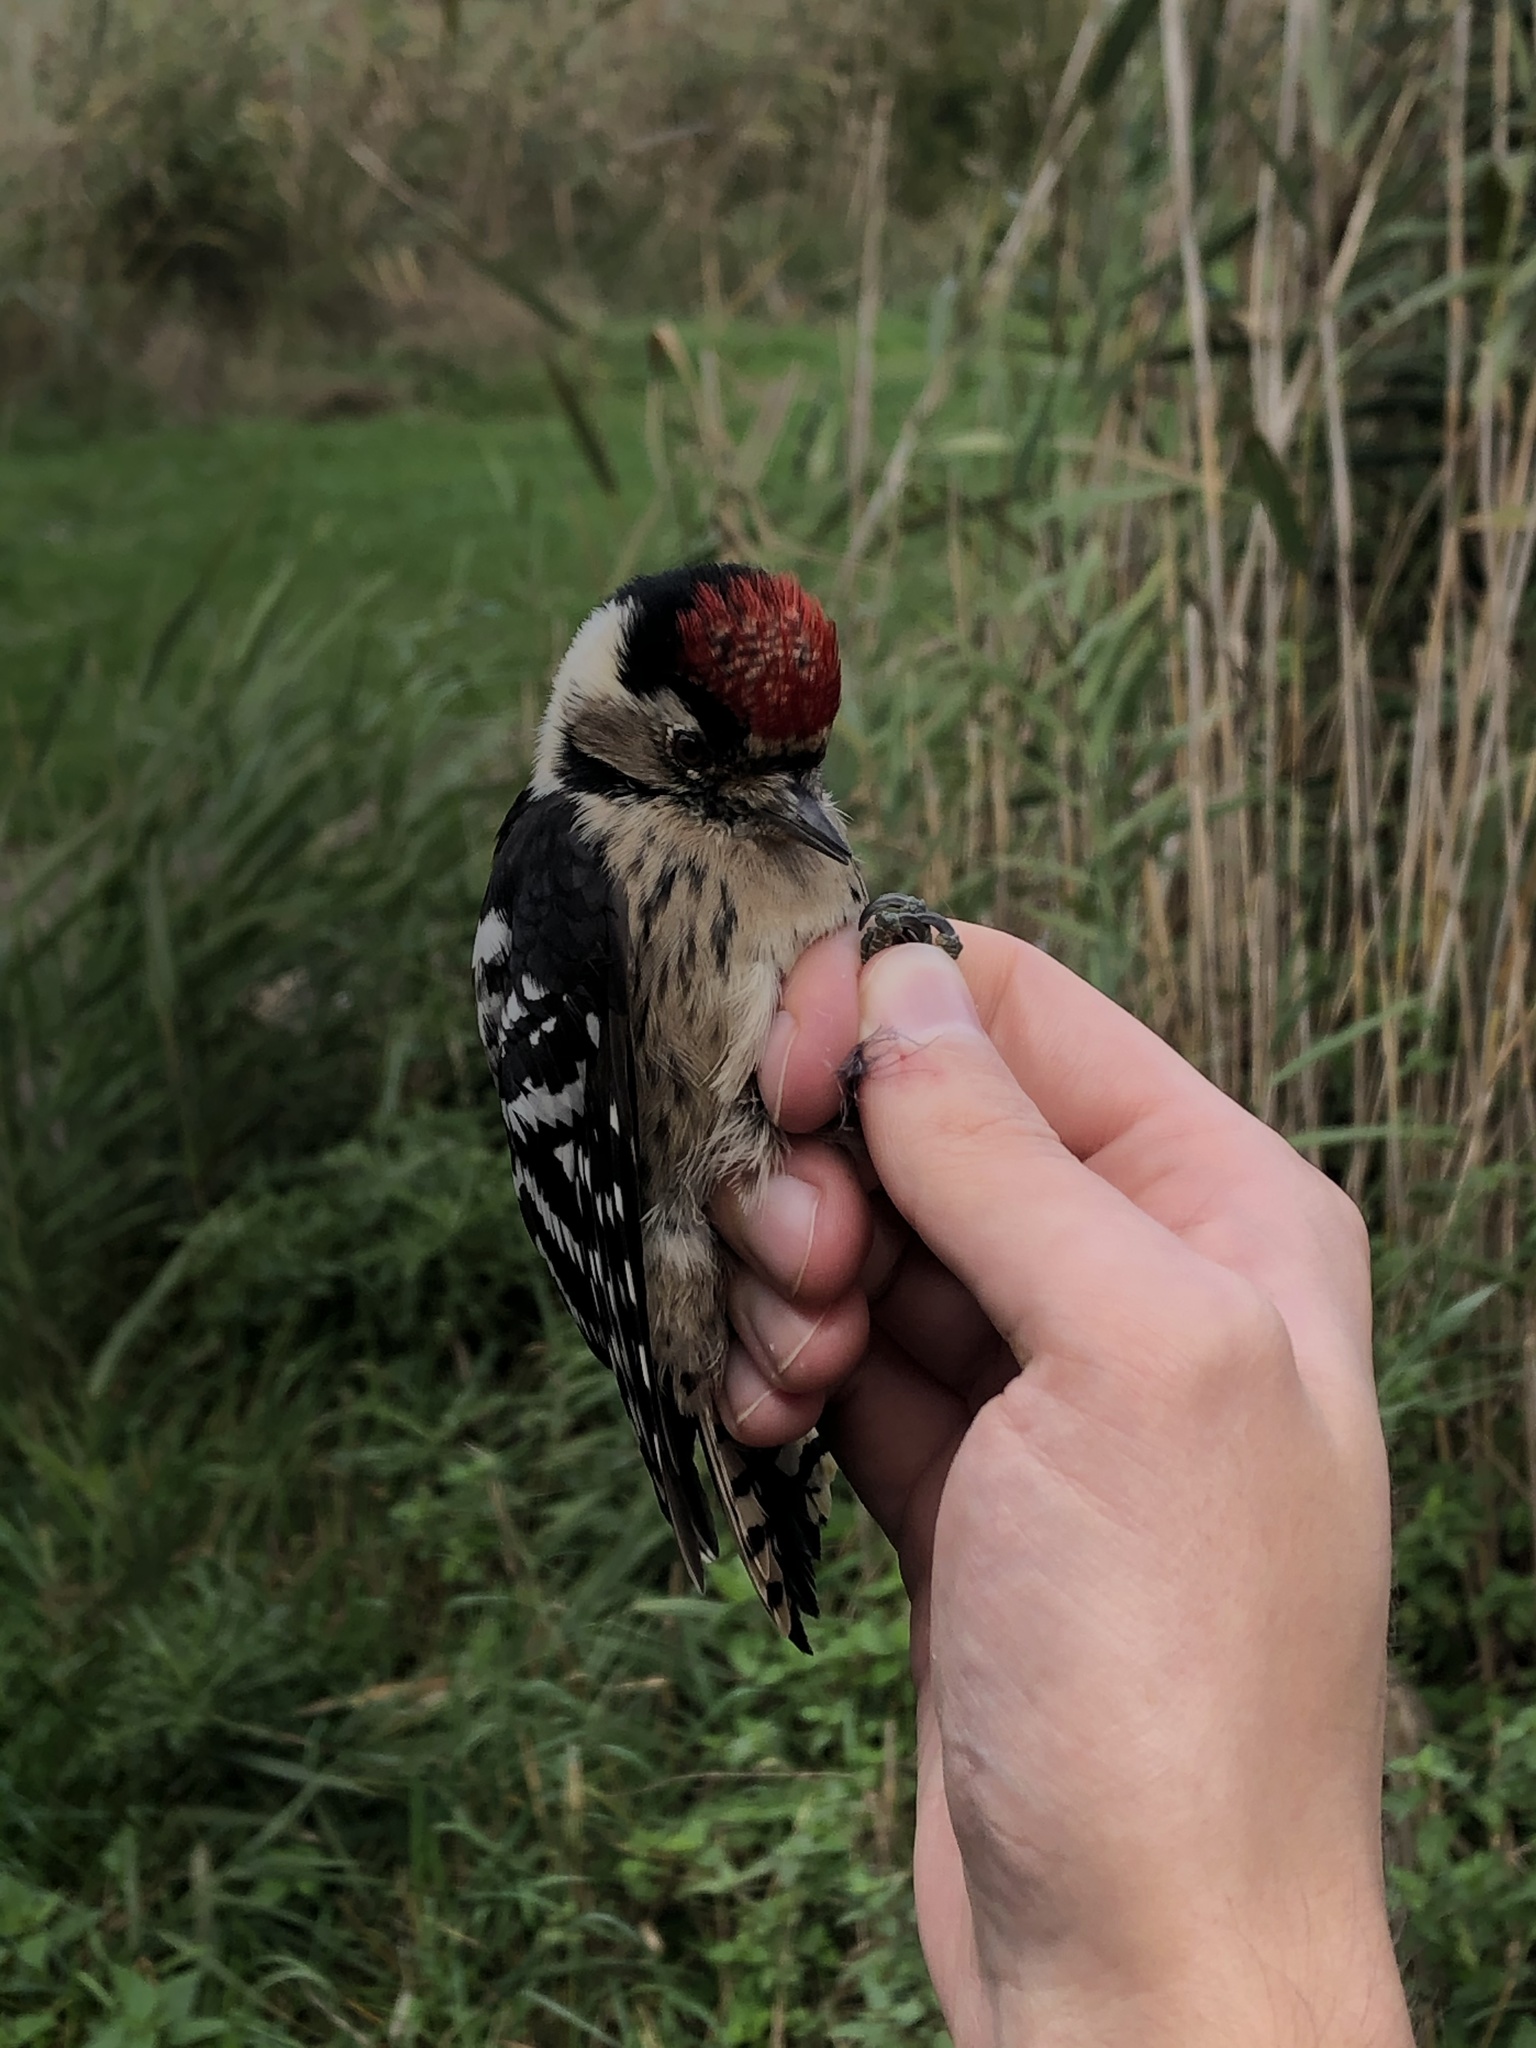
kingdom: Animalia
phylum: Chordata
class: Aves
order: Piciformes
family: Picidae
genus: Dryobates
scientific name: Dryobates minor
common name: Lesser spotted woodpecker
